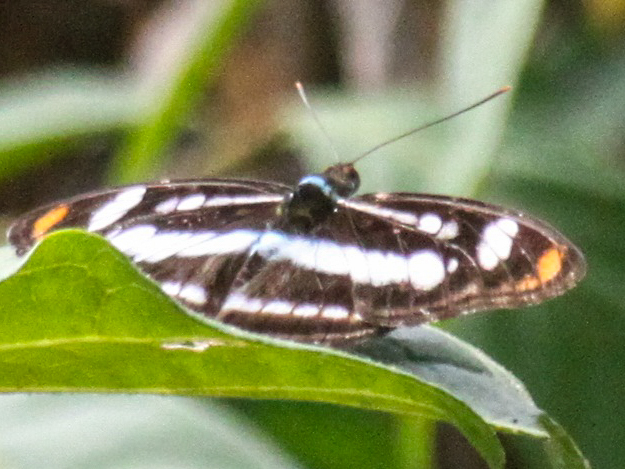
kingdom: Animalia
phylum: Arthropoda
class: Insecta
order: Lepidoptera
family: Nymphalidae
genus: Parathyma
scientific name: Parathyma nefte
